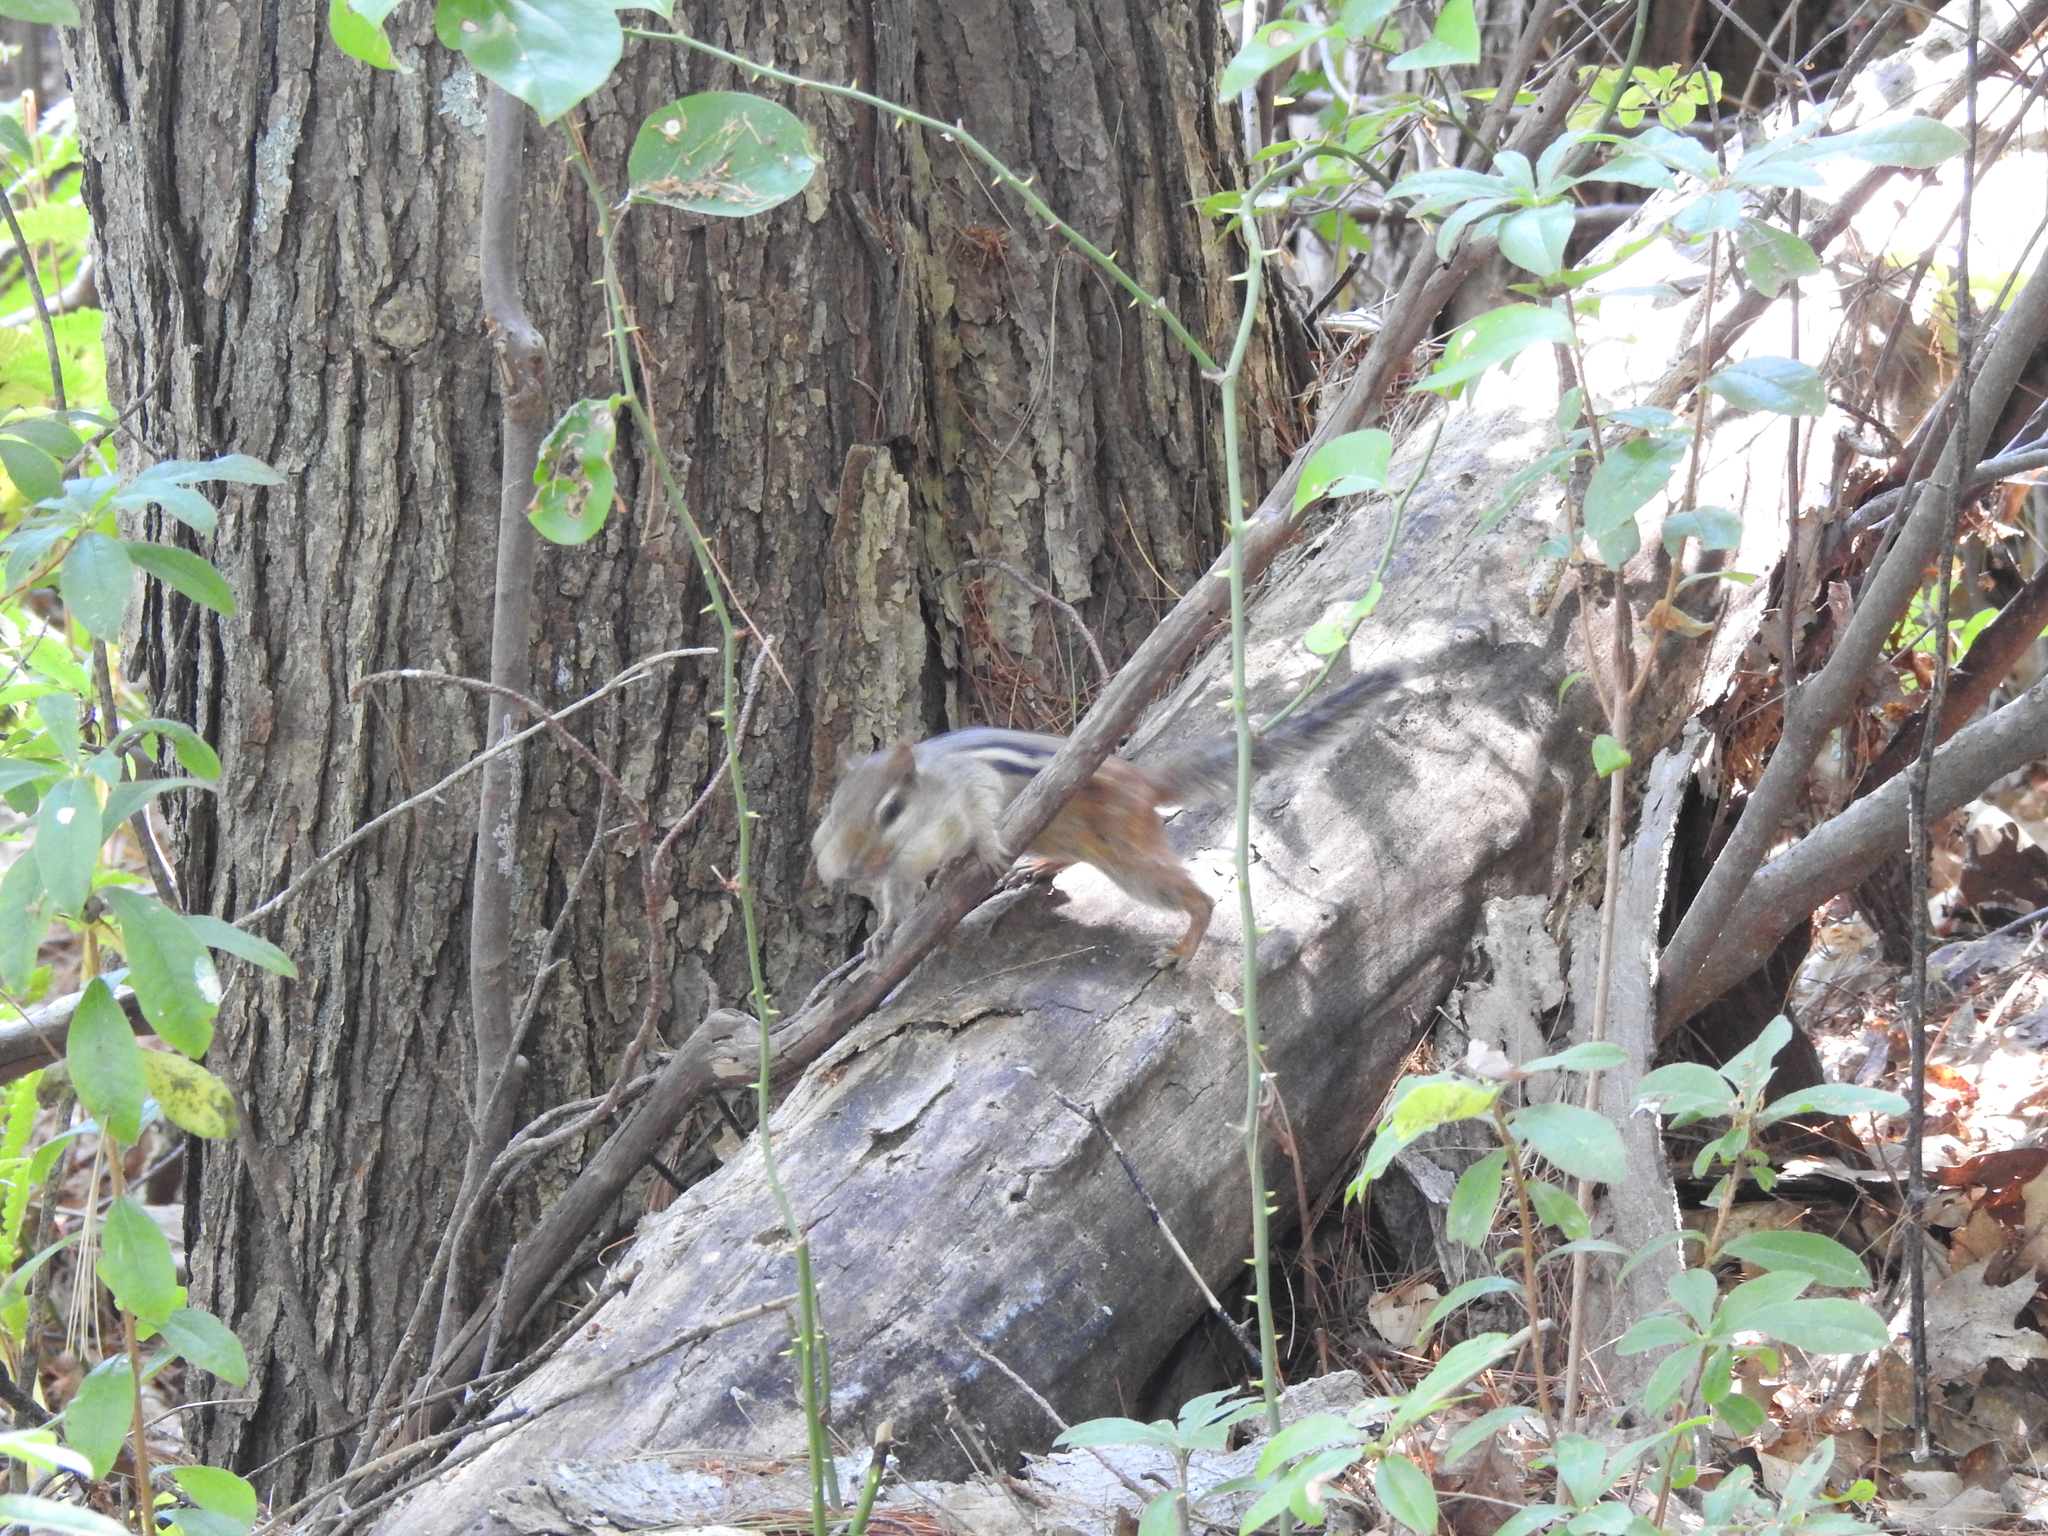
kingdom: Animalia
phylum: Chordata
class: Mammalia
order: Rodentia
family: Sciuridae
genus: Tamias
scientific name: Tamias striatus
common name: Eastern chipmunk
